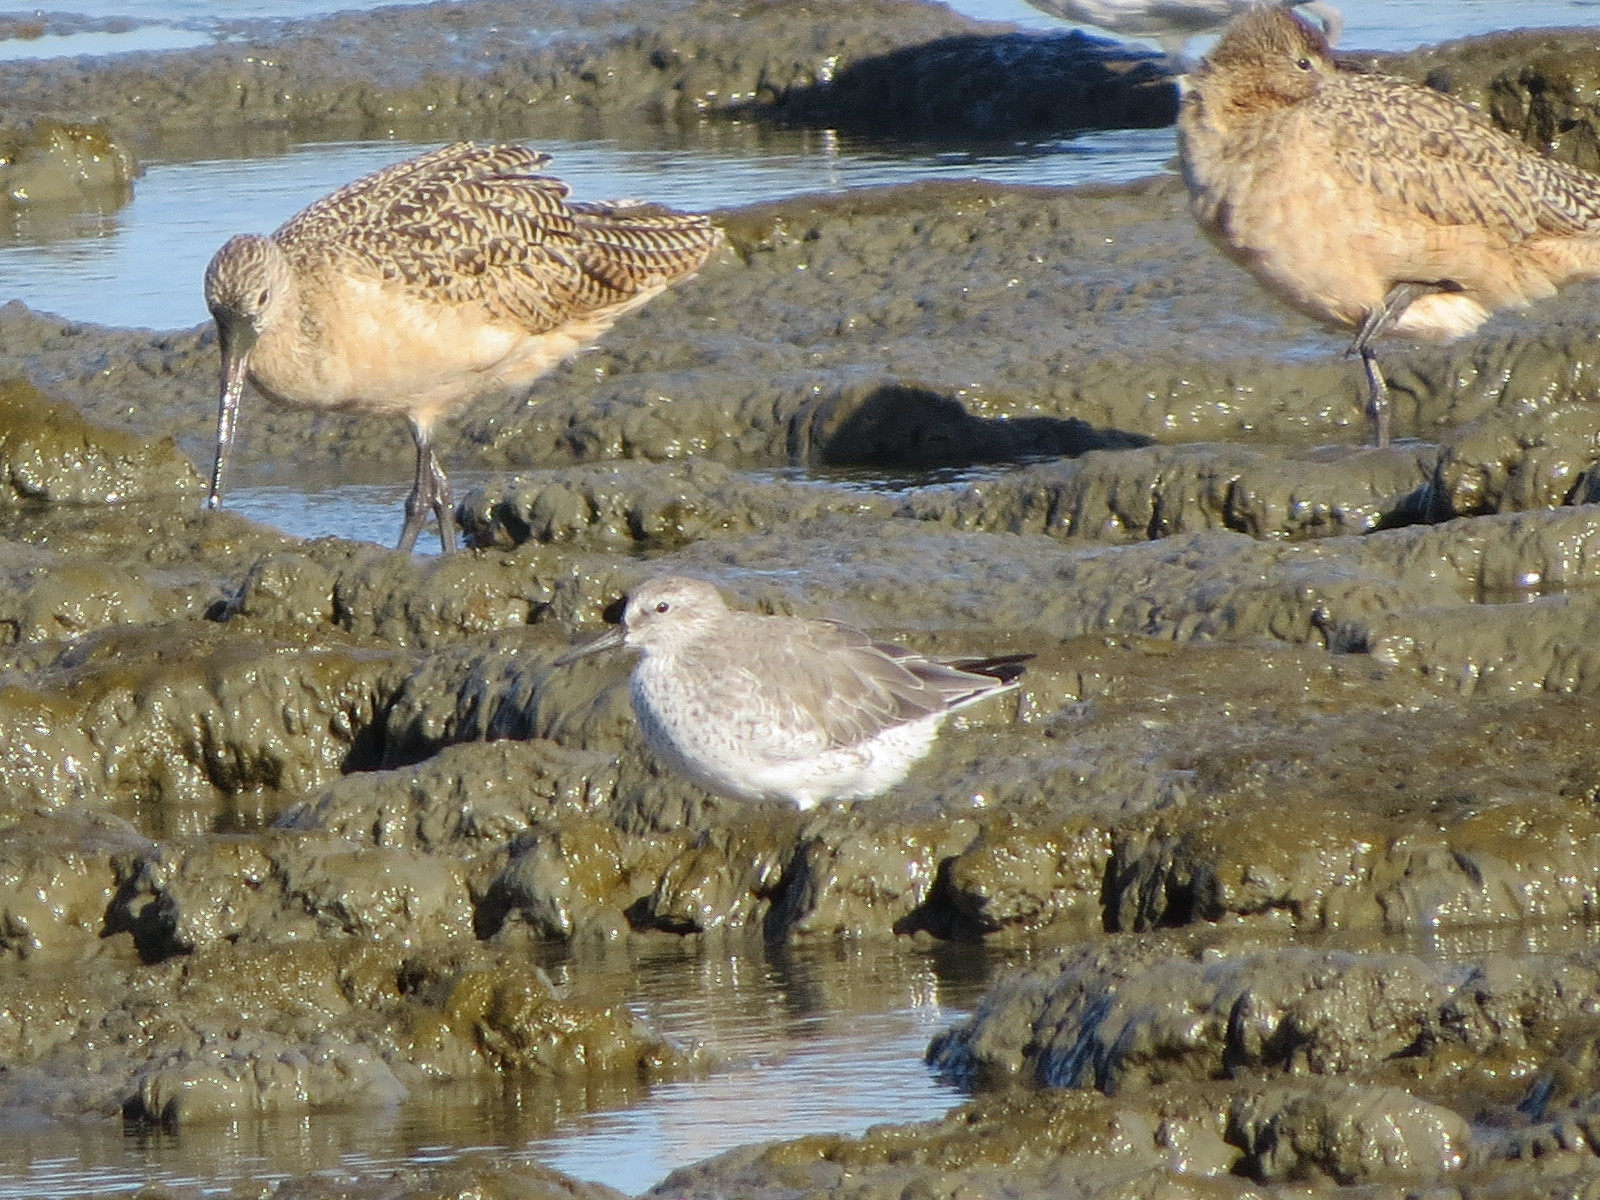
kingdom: Animalia
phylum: Chordata
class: Aves
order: Charadriiformes
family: Scolopacidae
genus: Calidris
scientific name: Calidris canutus
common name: Red knot
